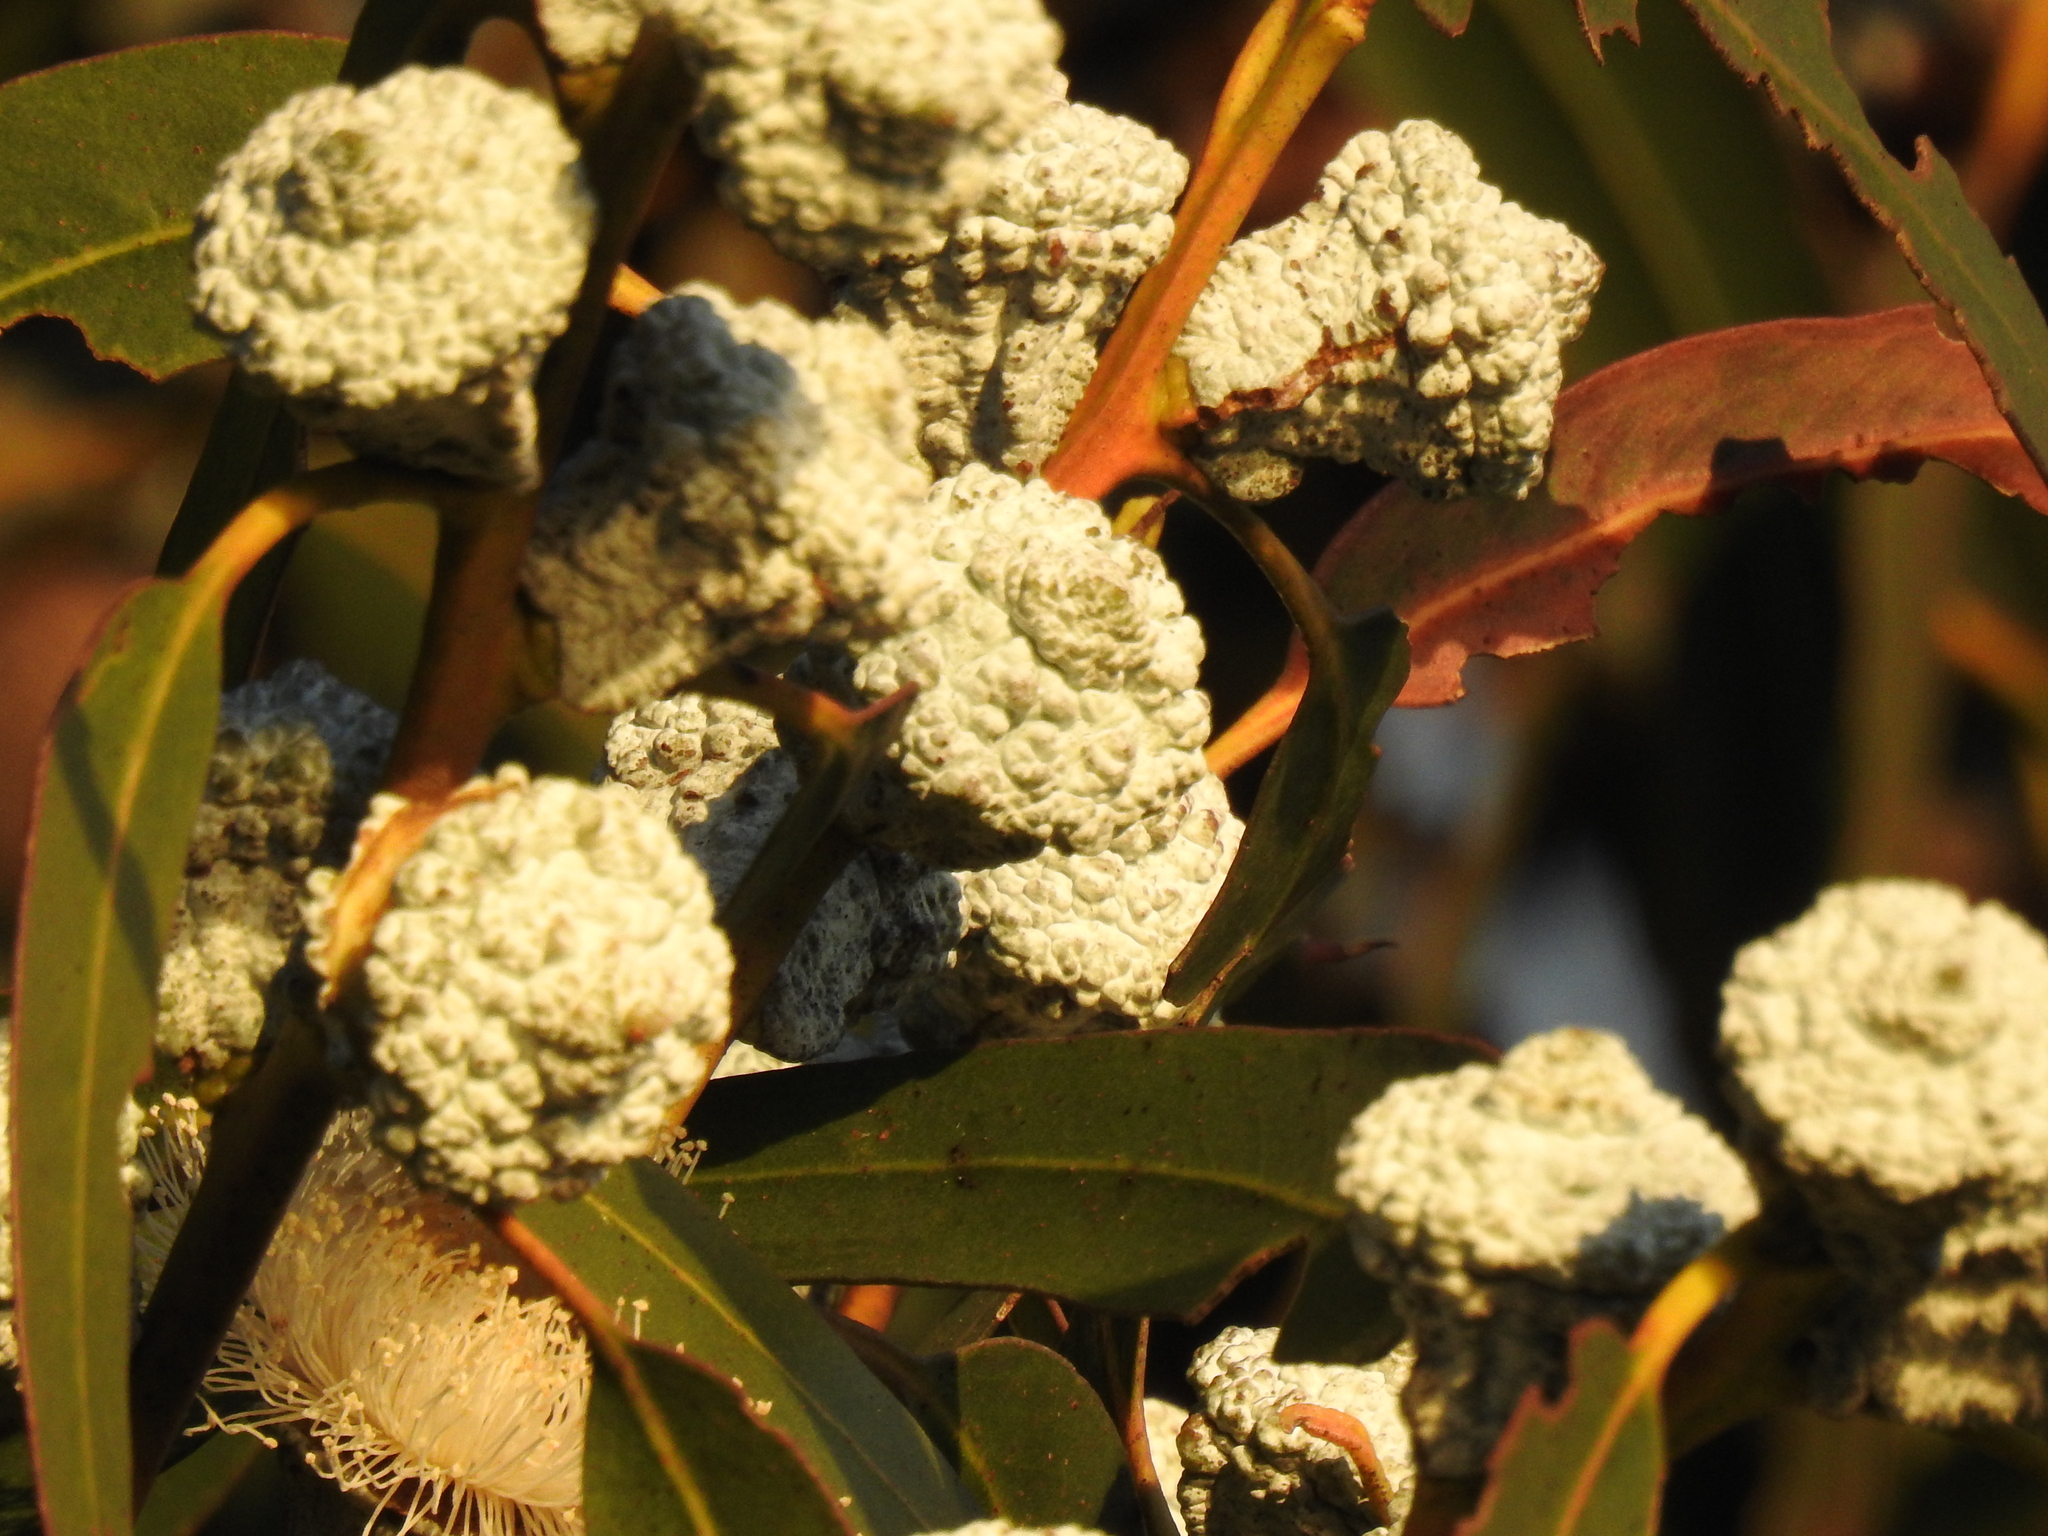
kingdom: Plantae
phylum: Tracheophyta
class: Magnoliopsida
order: Myrtales
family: Myrtaceae
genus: Eucalyptus
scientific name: Eucalyptus globulus
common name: Southern blue-gum
